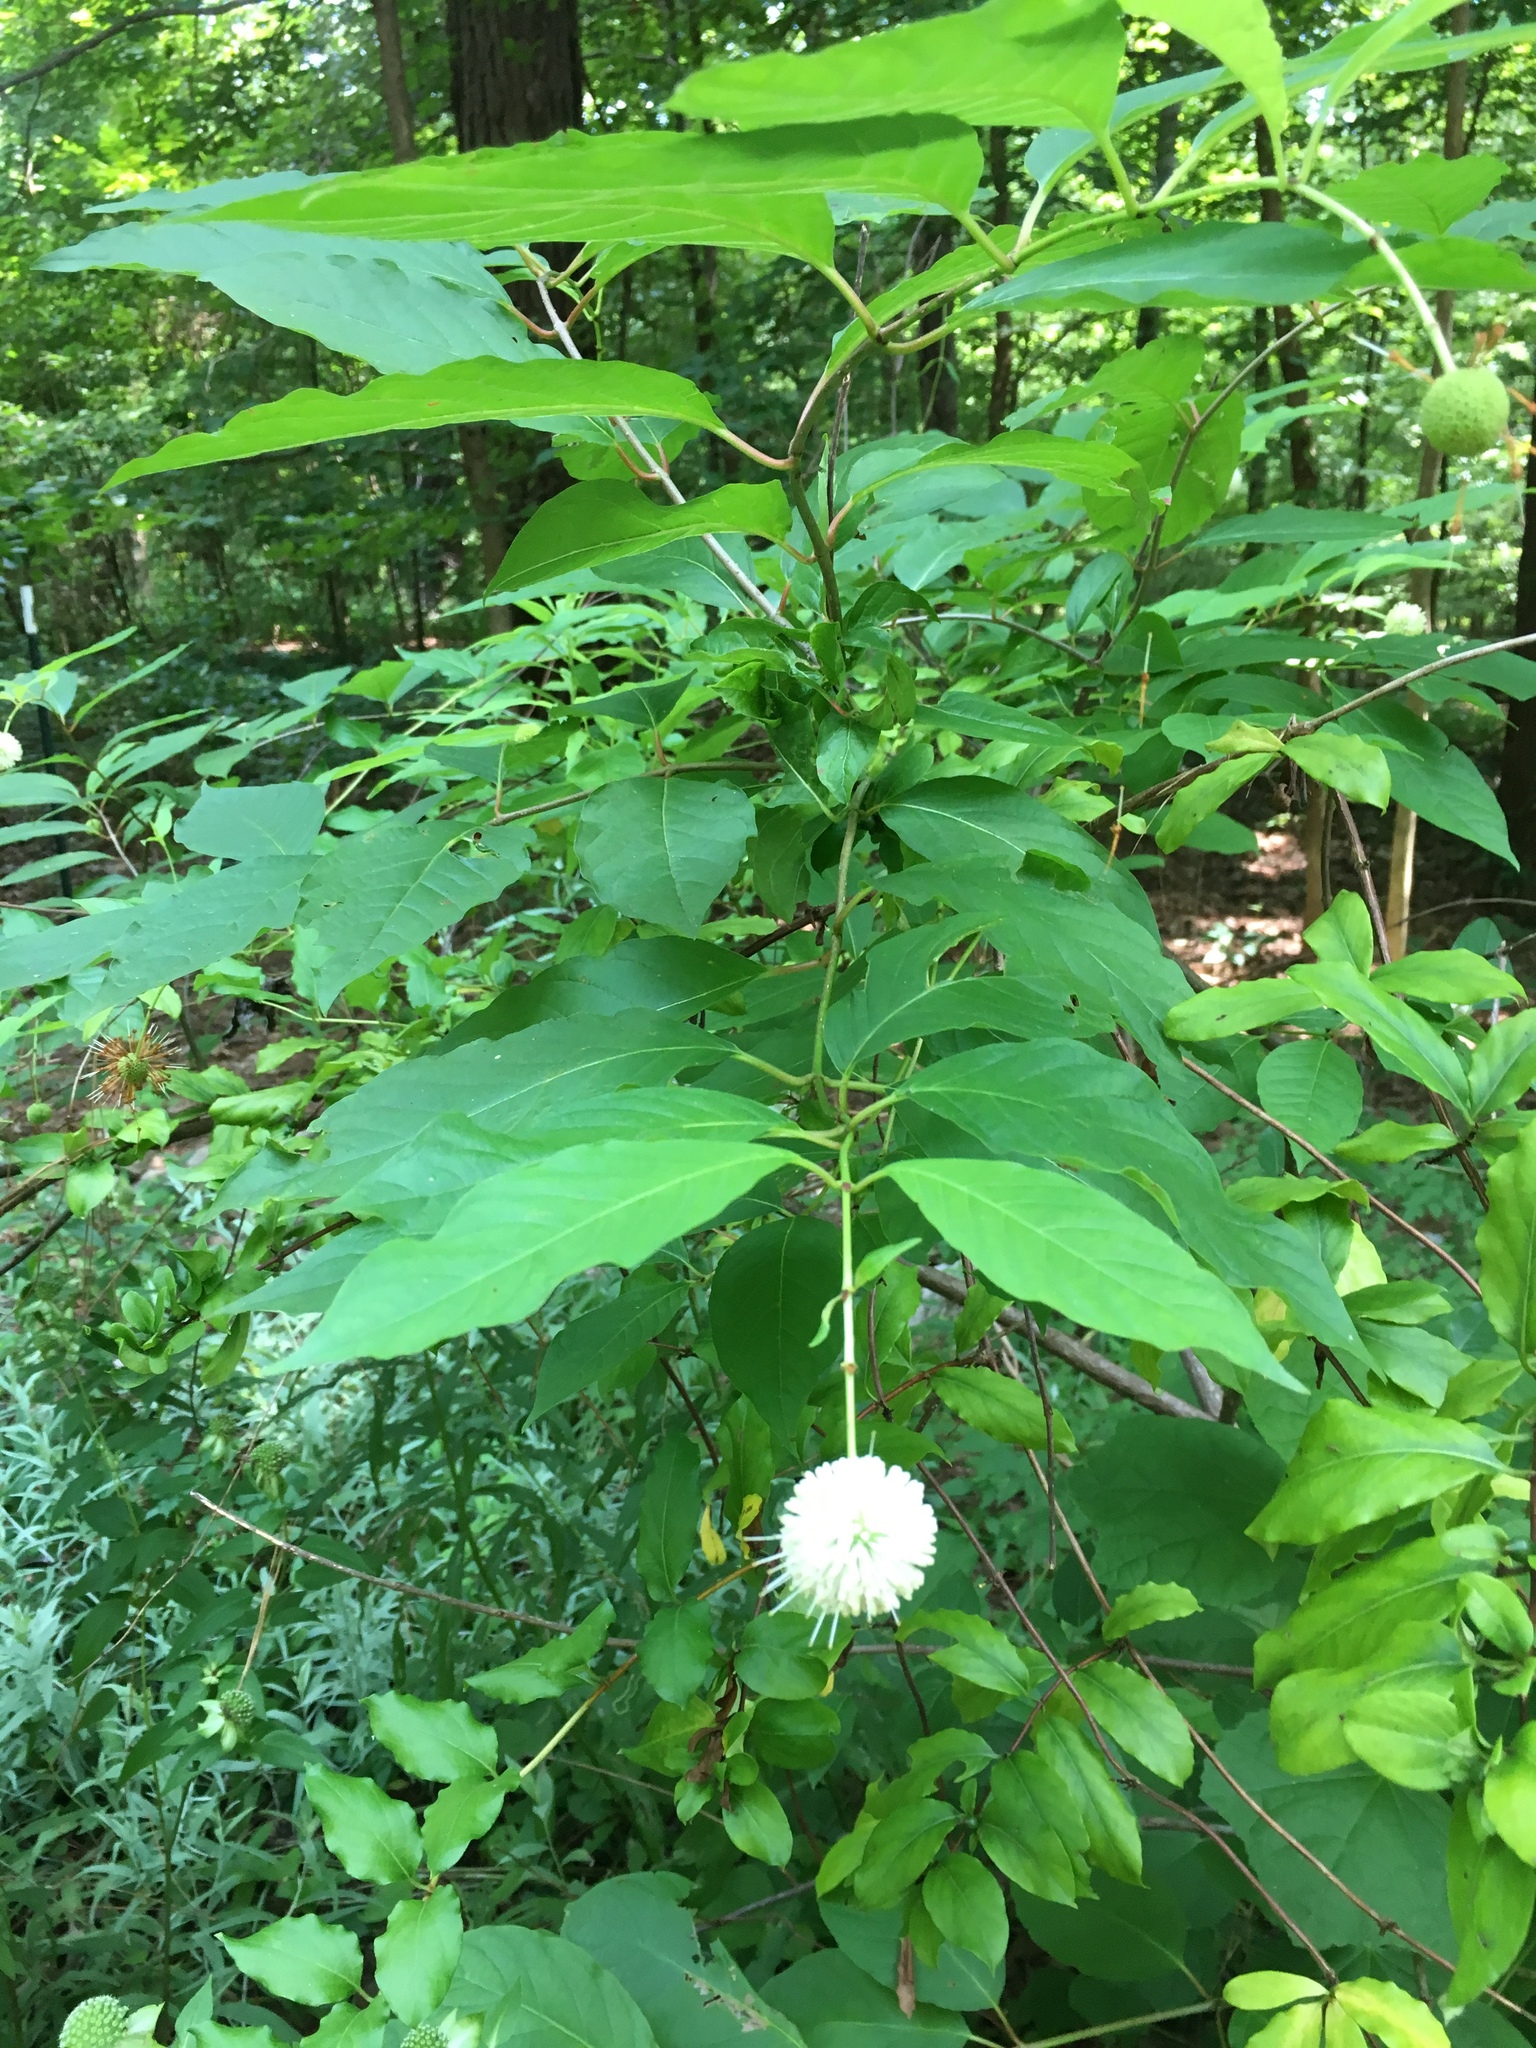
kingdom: Plantae
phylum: Tracheophyta
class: Magnoliopsida
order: Gentianales
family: Rubiaceae
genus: Cephalanthus
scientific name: Cephalanthus occidentalis
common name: Button-willow
